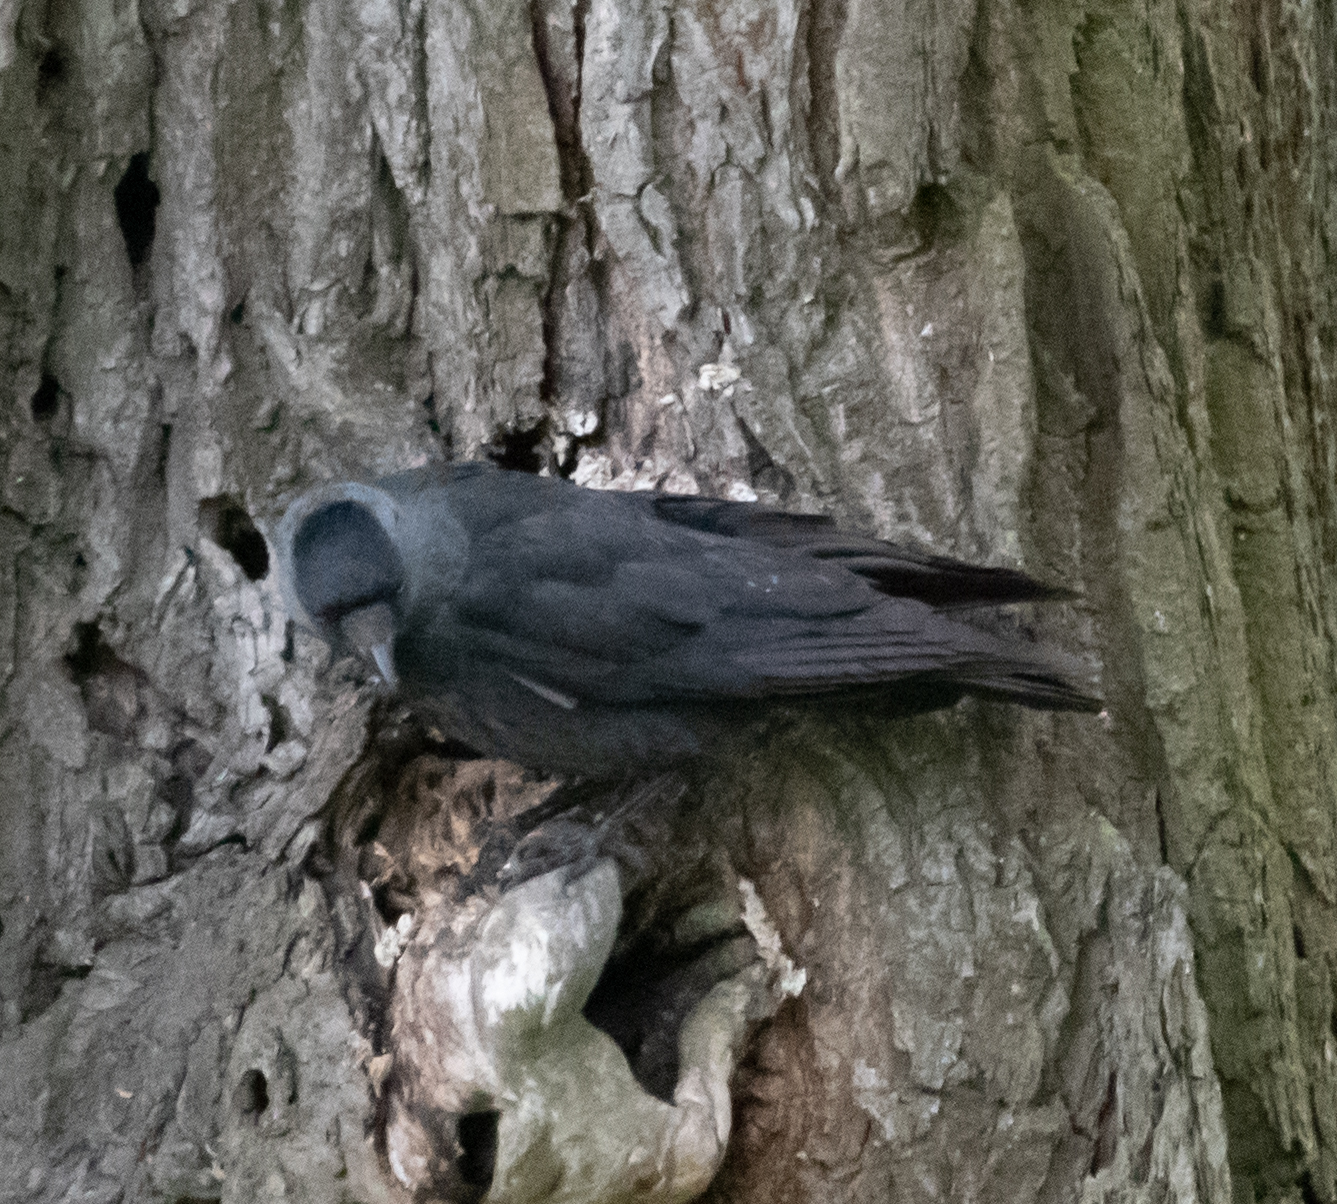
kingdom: Animalia
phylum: Chordata
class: Aves
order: Passeriformes
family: Corvidae
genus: Coloeus
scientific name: Coloeus monedula
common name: Western jackdaw
